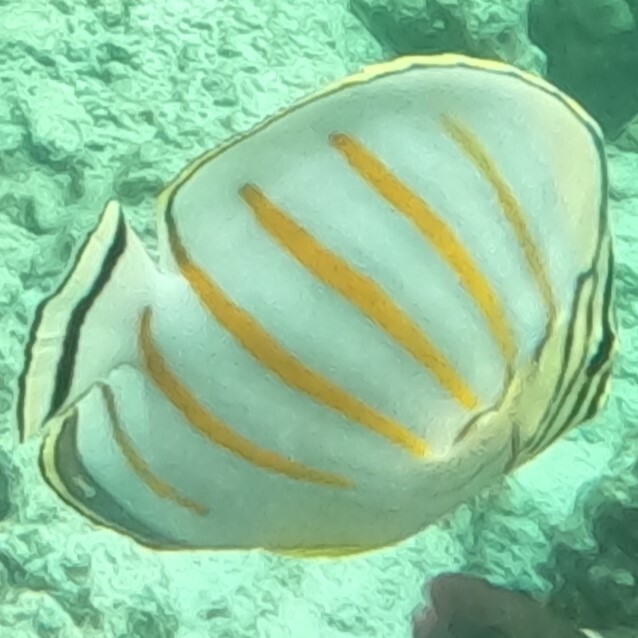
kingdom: Animalia
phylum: Chordata
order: Perciformes
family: Chaetodontidae
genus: Chaetodon
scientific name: Chaetodon ornatissimus
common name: Ornate butterflyfish
